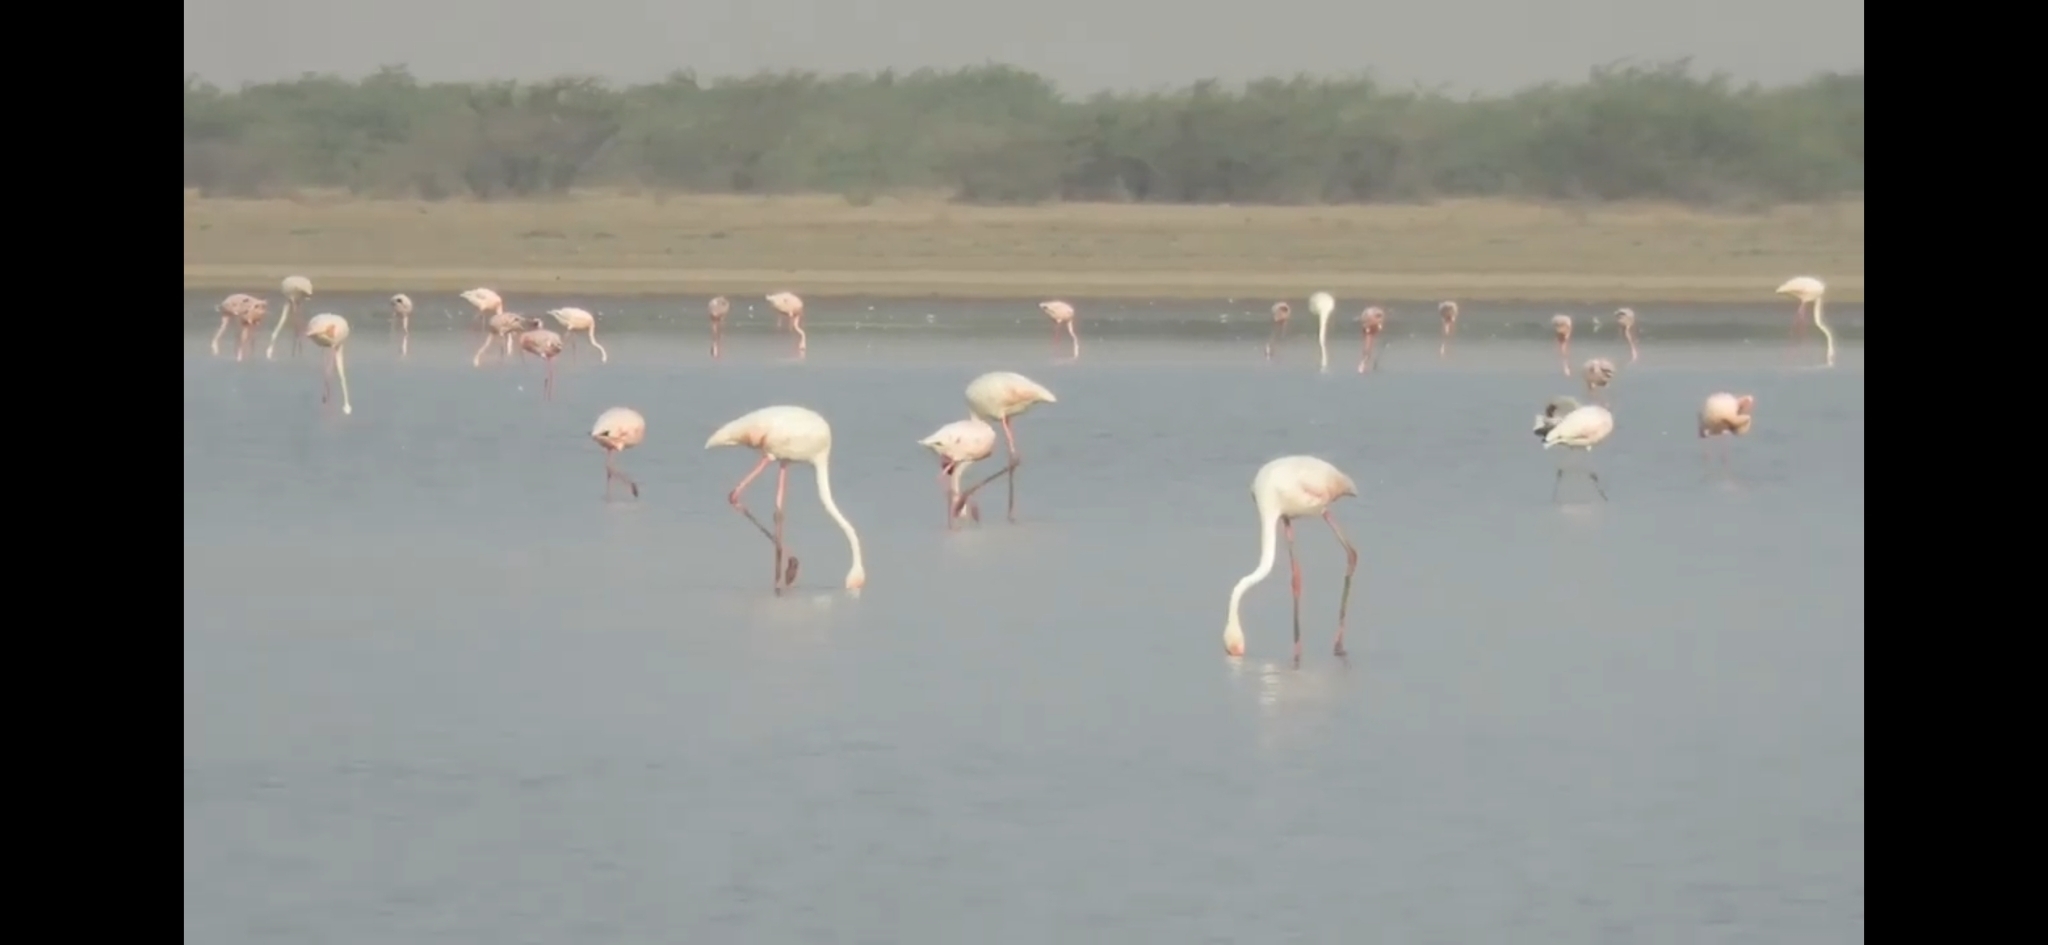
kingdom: Animalia
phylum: Chordata
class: Aves
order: Phoenicopteriformes
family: Phoenicopteridae
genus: Phoenicopterus
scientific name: Phoenicopterus roseus
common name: Greater flamingo
